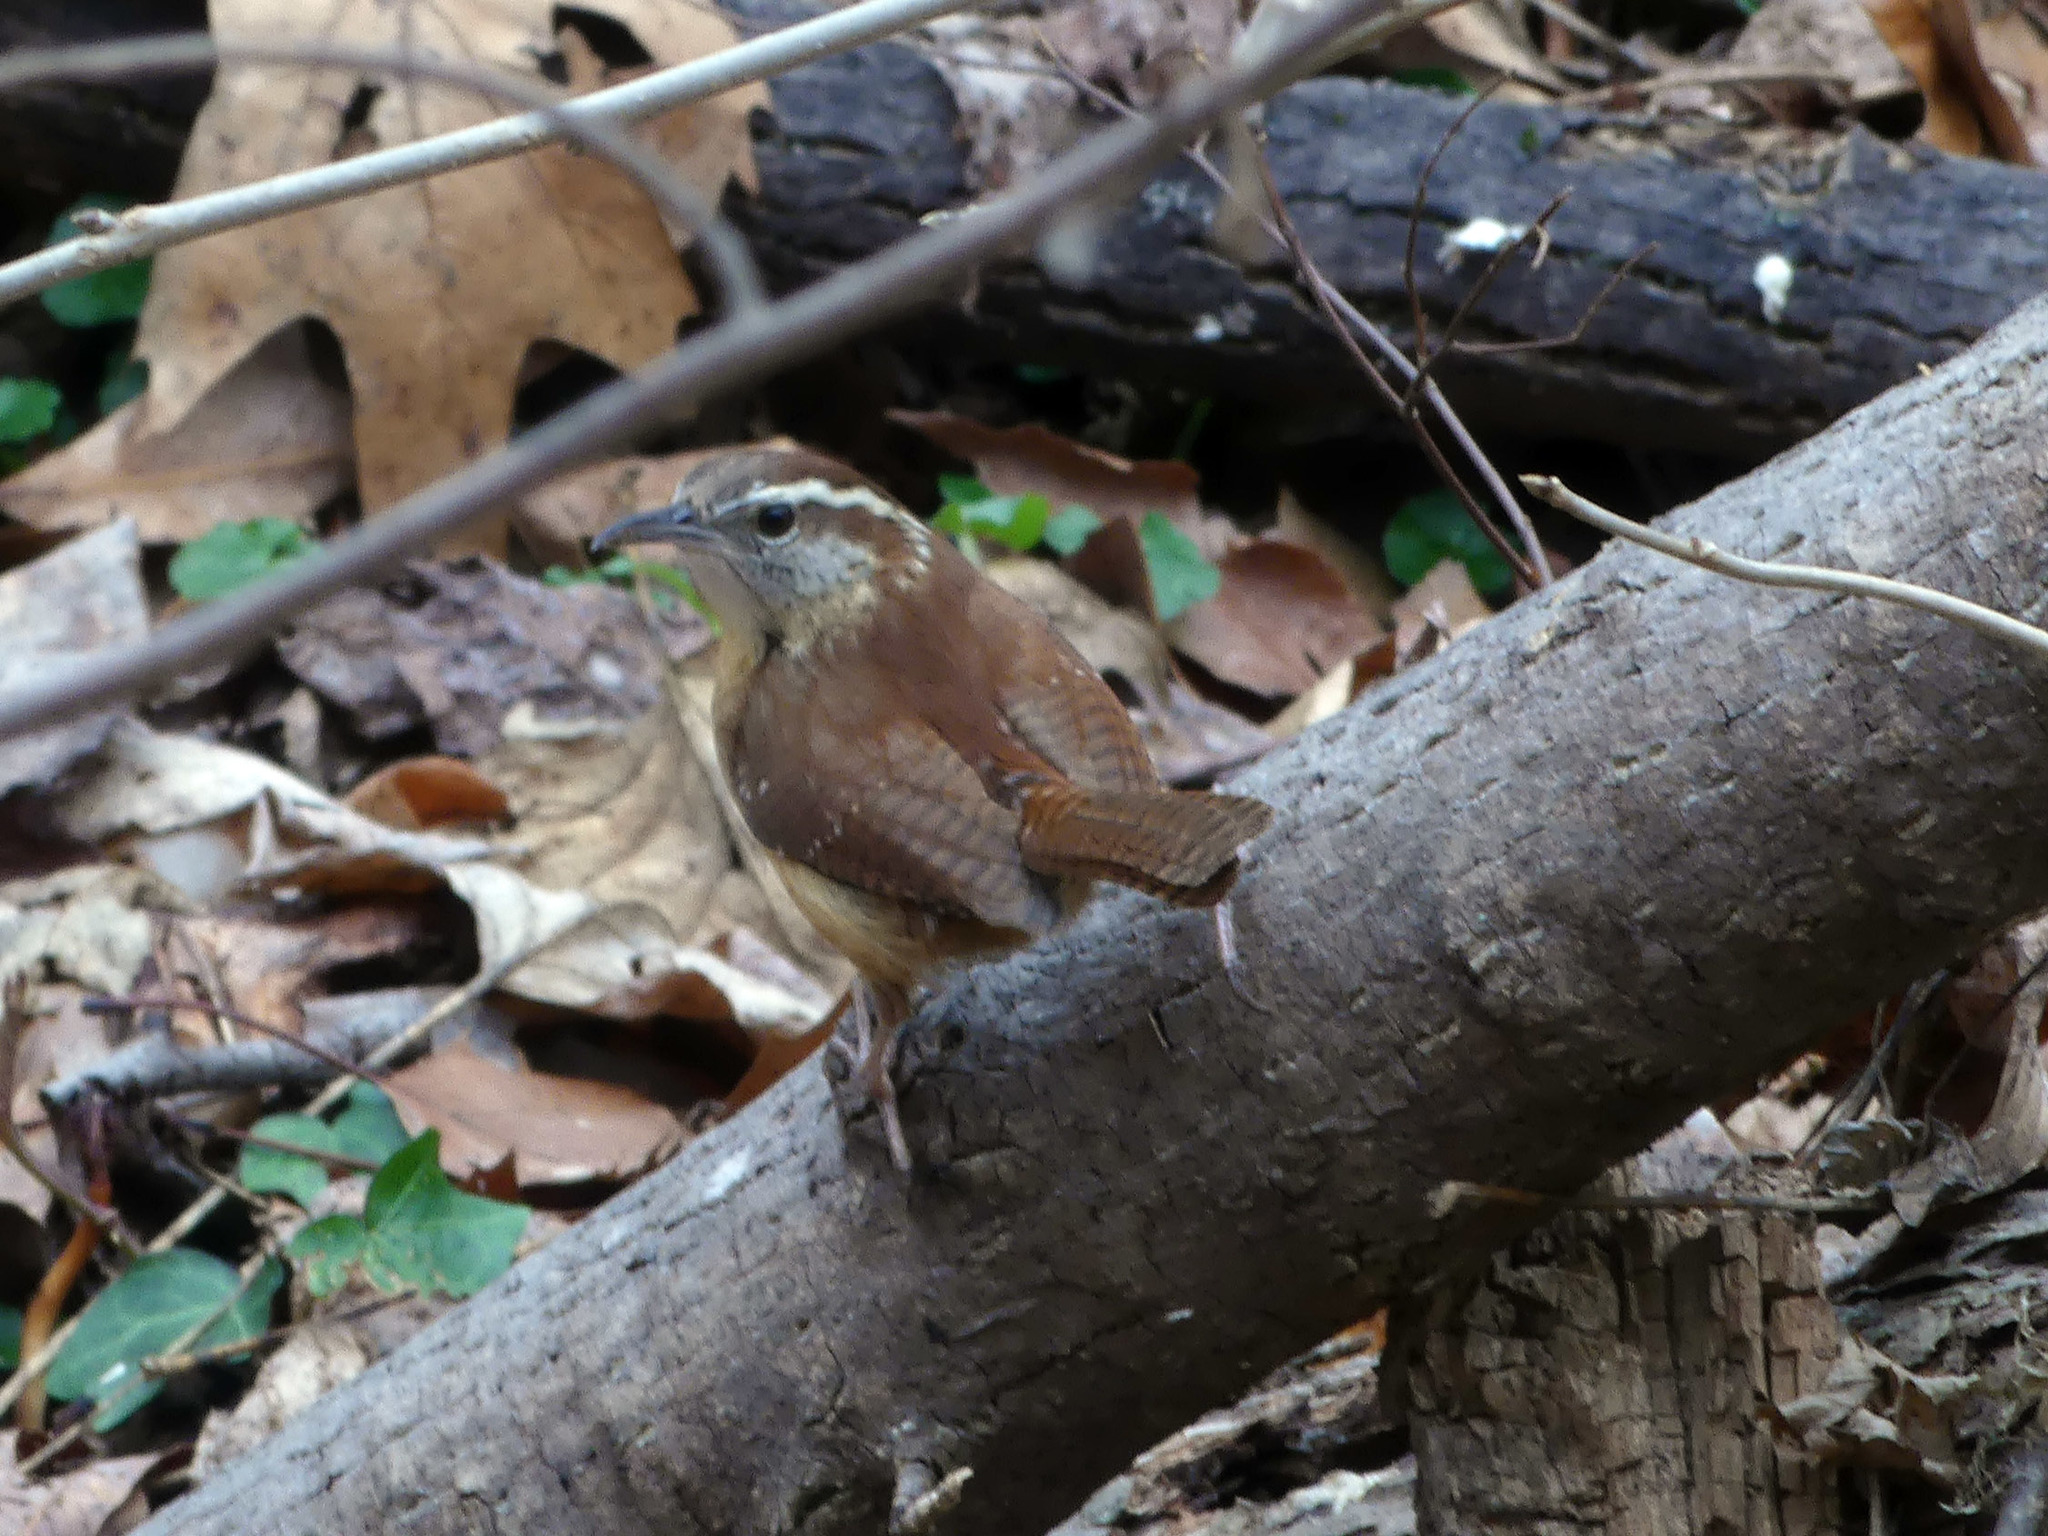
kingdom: Animalia
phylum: Chordata
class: Aves
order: Passeriformes
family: Troglodytidae
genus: Thryothorus
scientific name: Thryothorus ludovicianus
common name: Carolina wren
